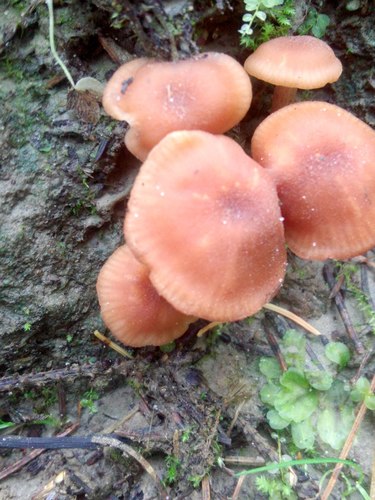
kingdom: Fungi
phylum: Basidiomycota
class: Agaricomycetes
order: Agaricales
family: Hydnangiaceae
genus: Laccaria
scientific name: Laccaria laccata
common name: Deceiver
